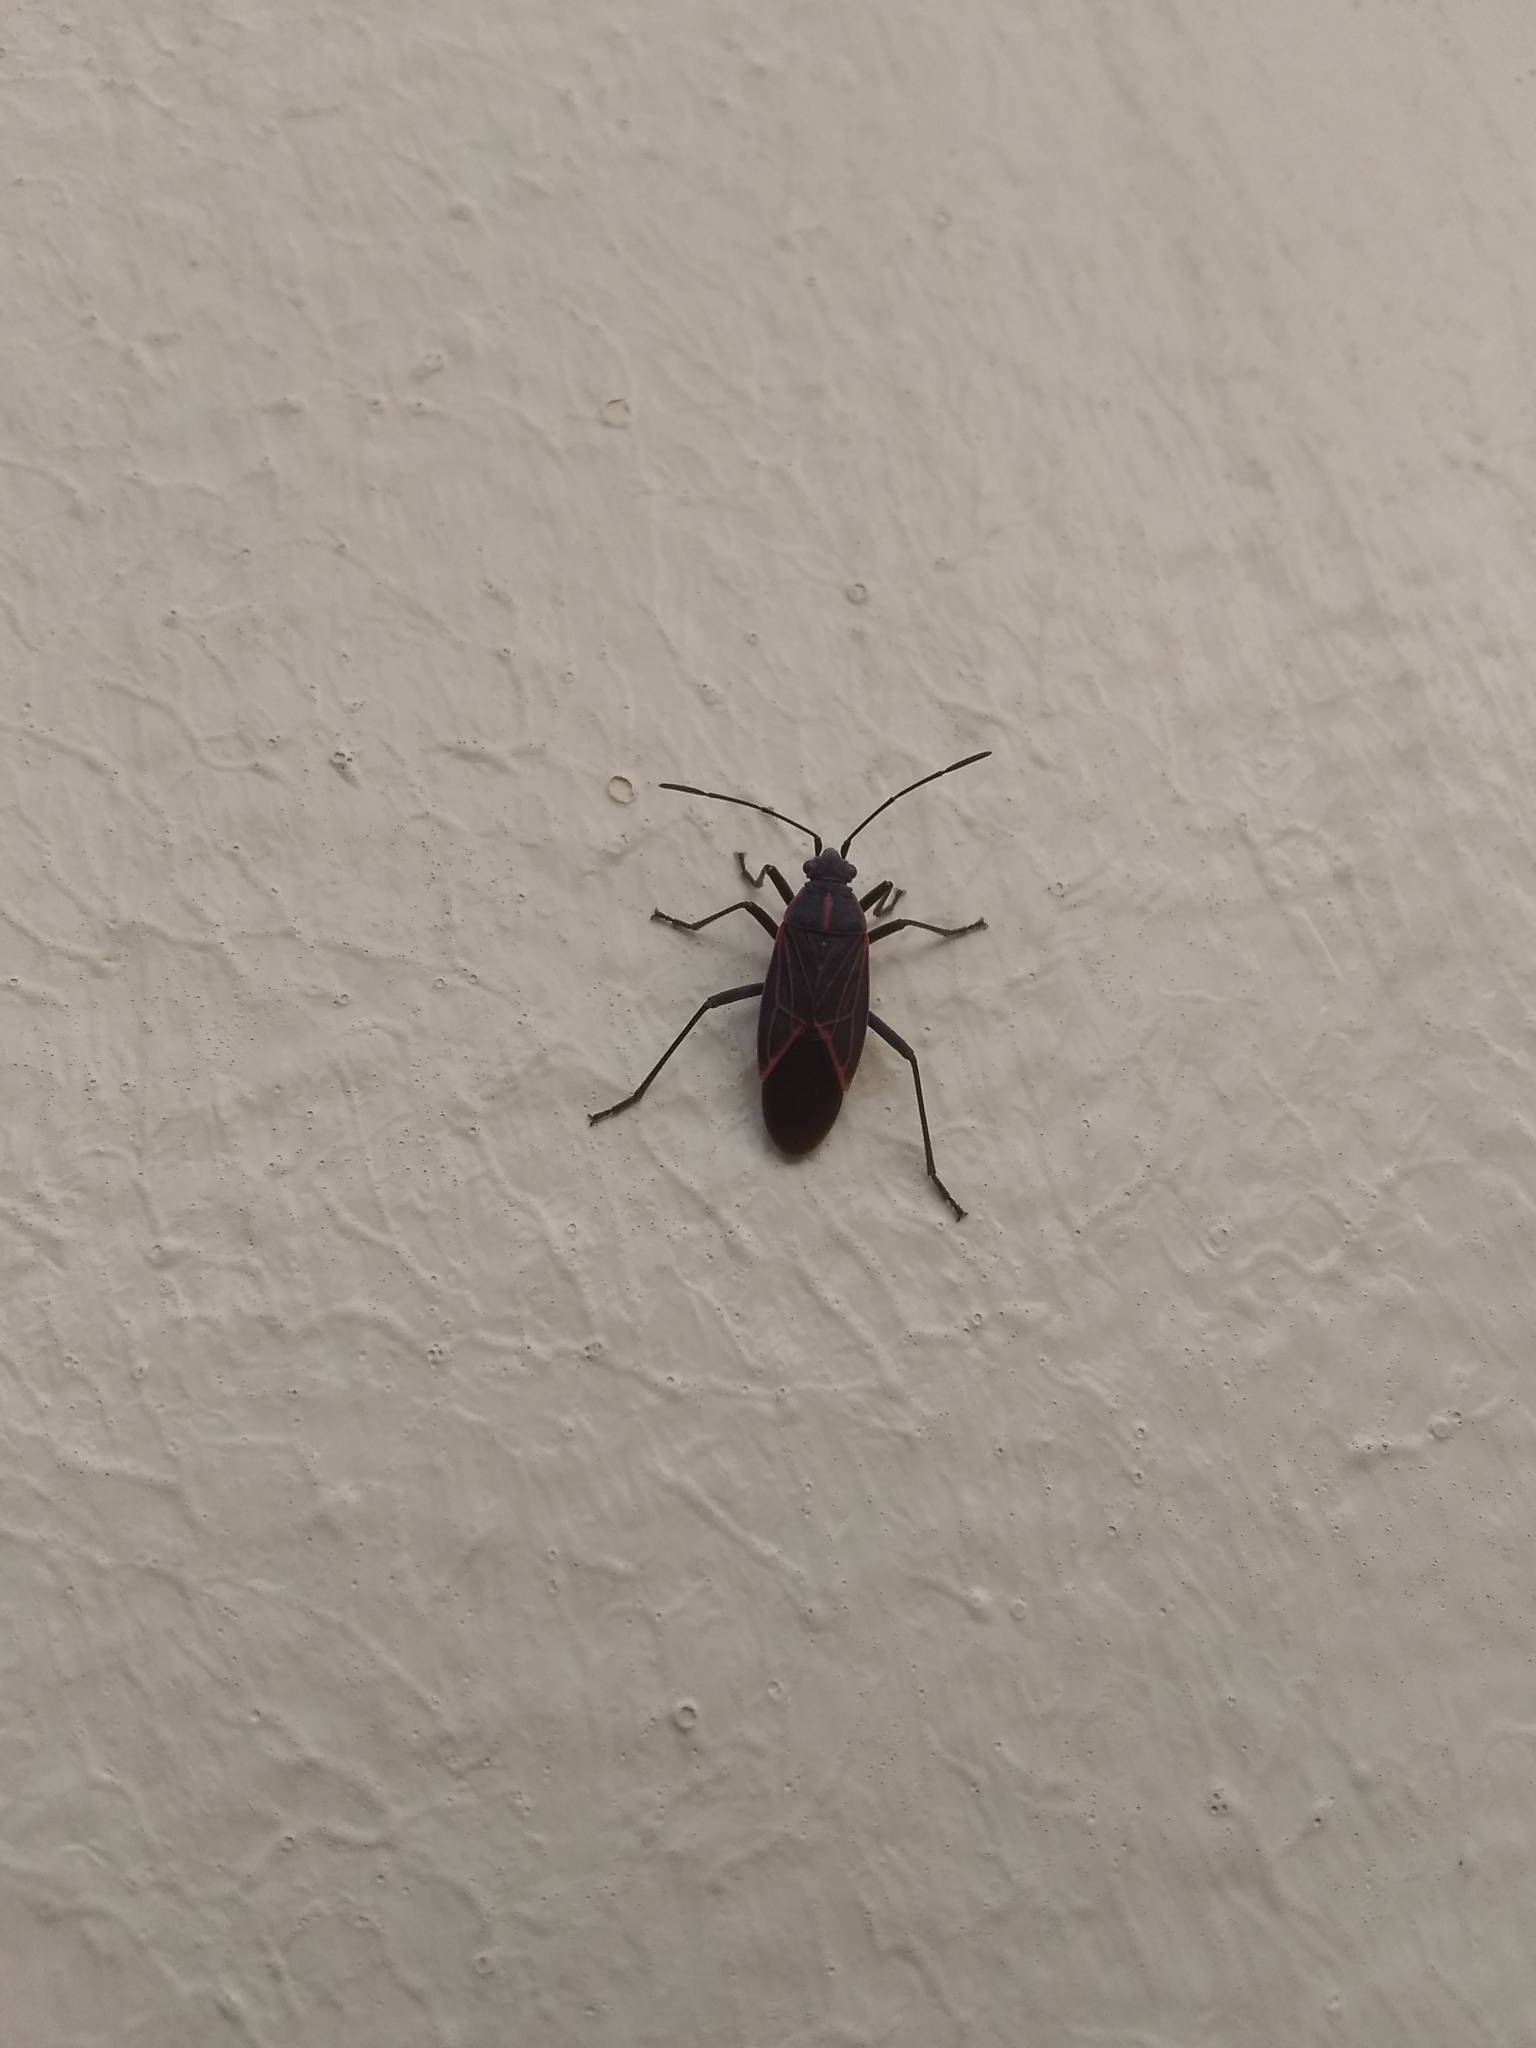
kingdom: Animalia
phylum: Arthropoda
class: Insecta
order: Hemiptera
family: Rhopalidae
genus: Boisea
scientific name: Boisea rubrolineata
